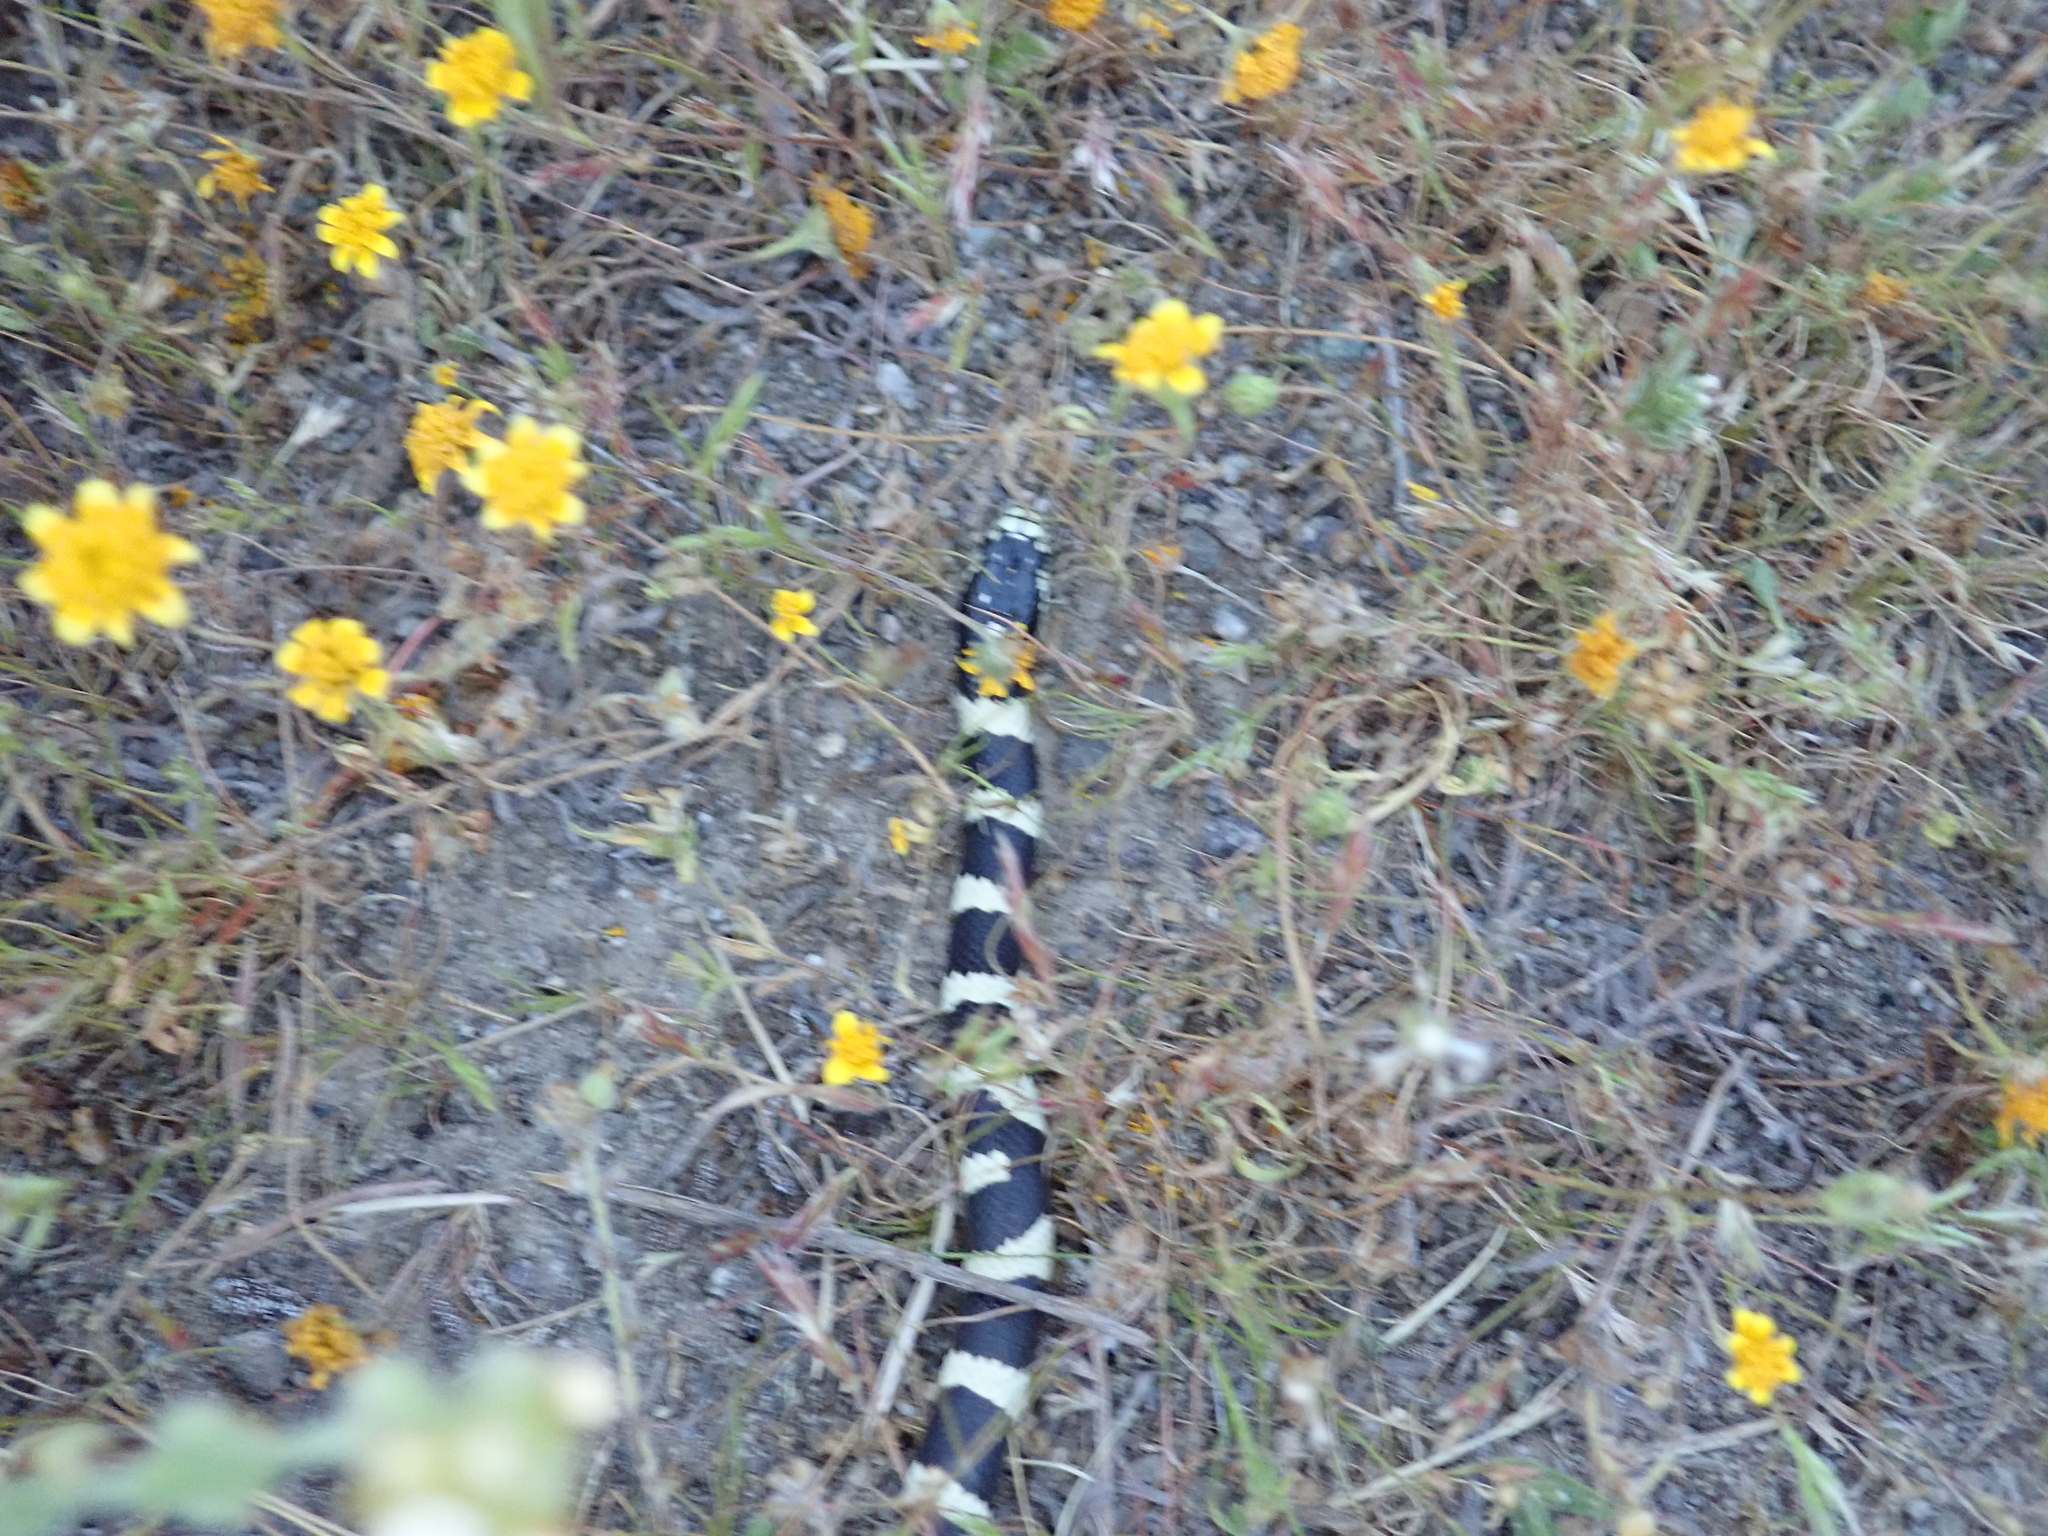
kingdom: Animalia
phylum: Chordata
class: Squamata
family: Colubridae
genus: Lampropeltis
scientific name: Lampropeltis californiae
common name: California kingsnake
